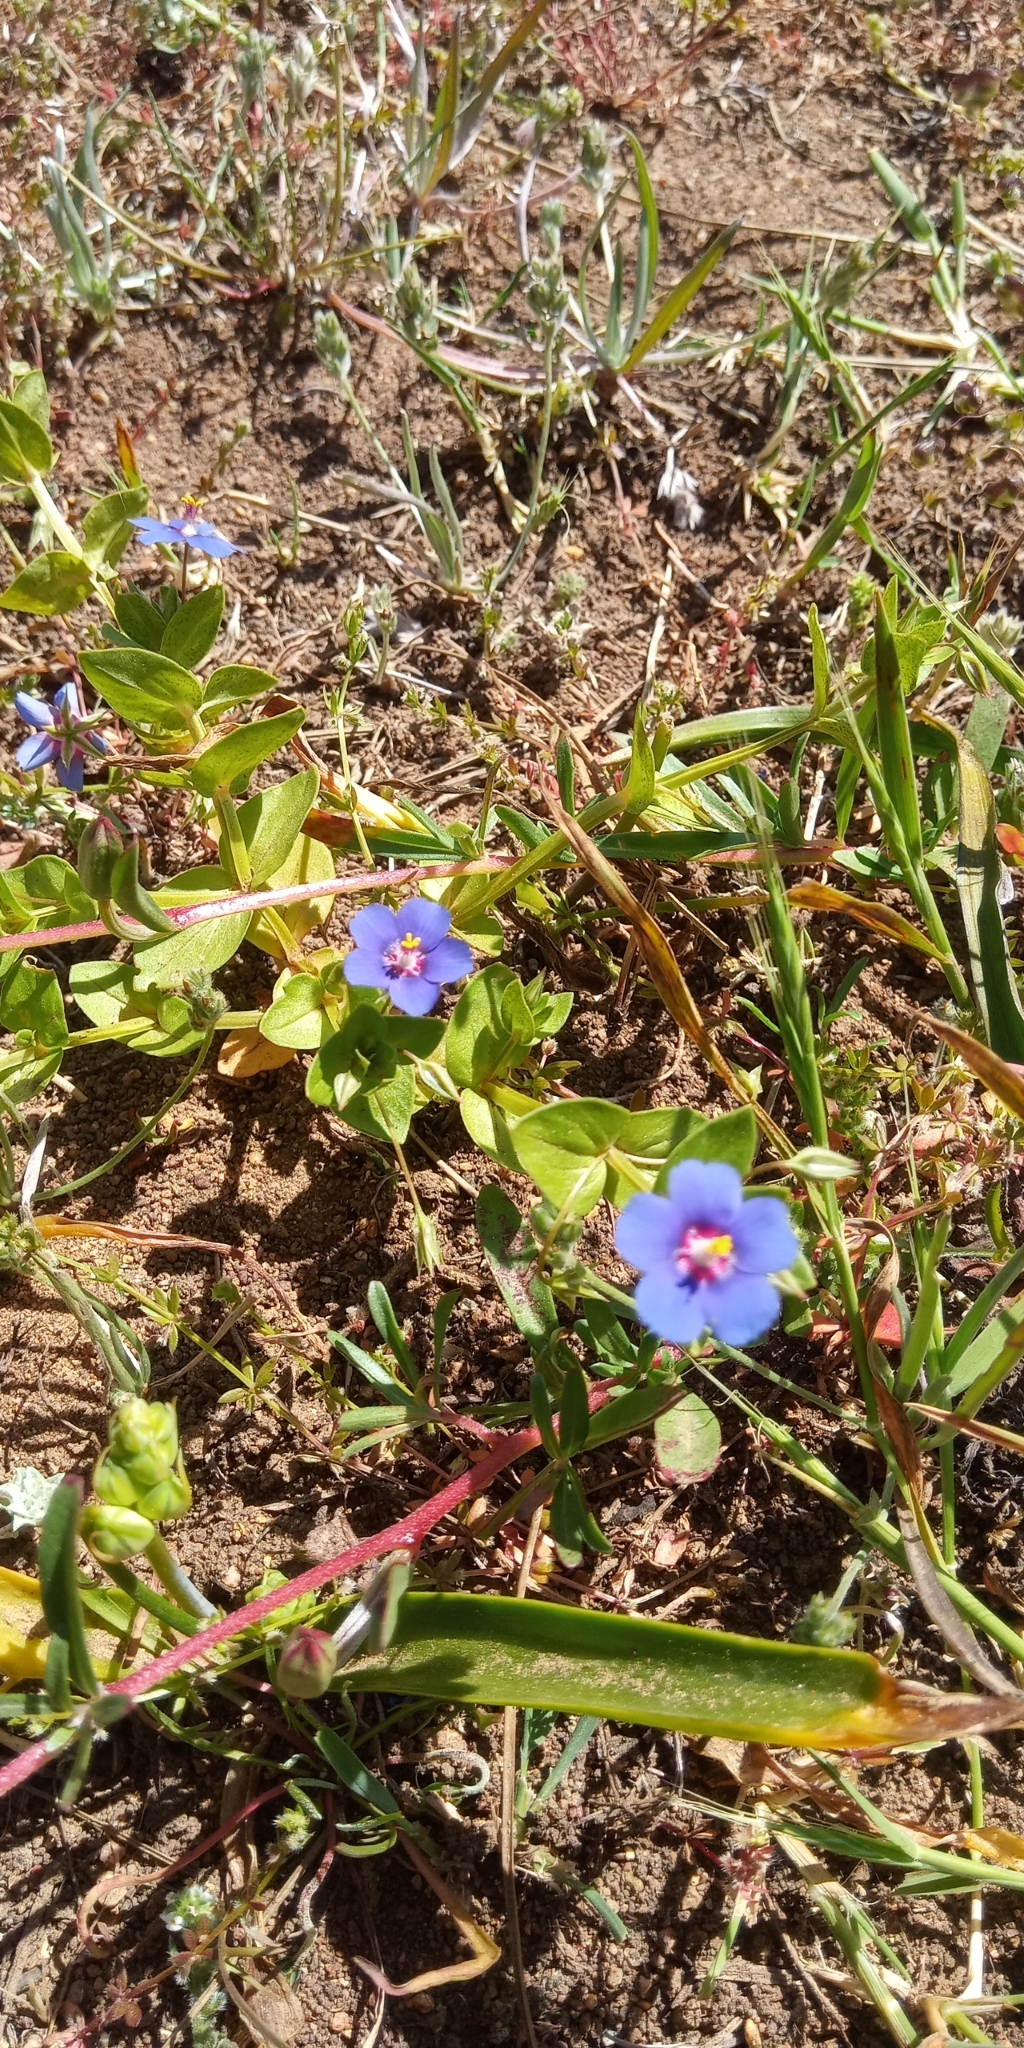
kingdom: Plantae
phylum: Tracheophyta
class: Magnoliopsida
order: Ericales
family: Primulaceae
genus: Lysimachia
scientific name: Lysimachia foemina
